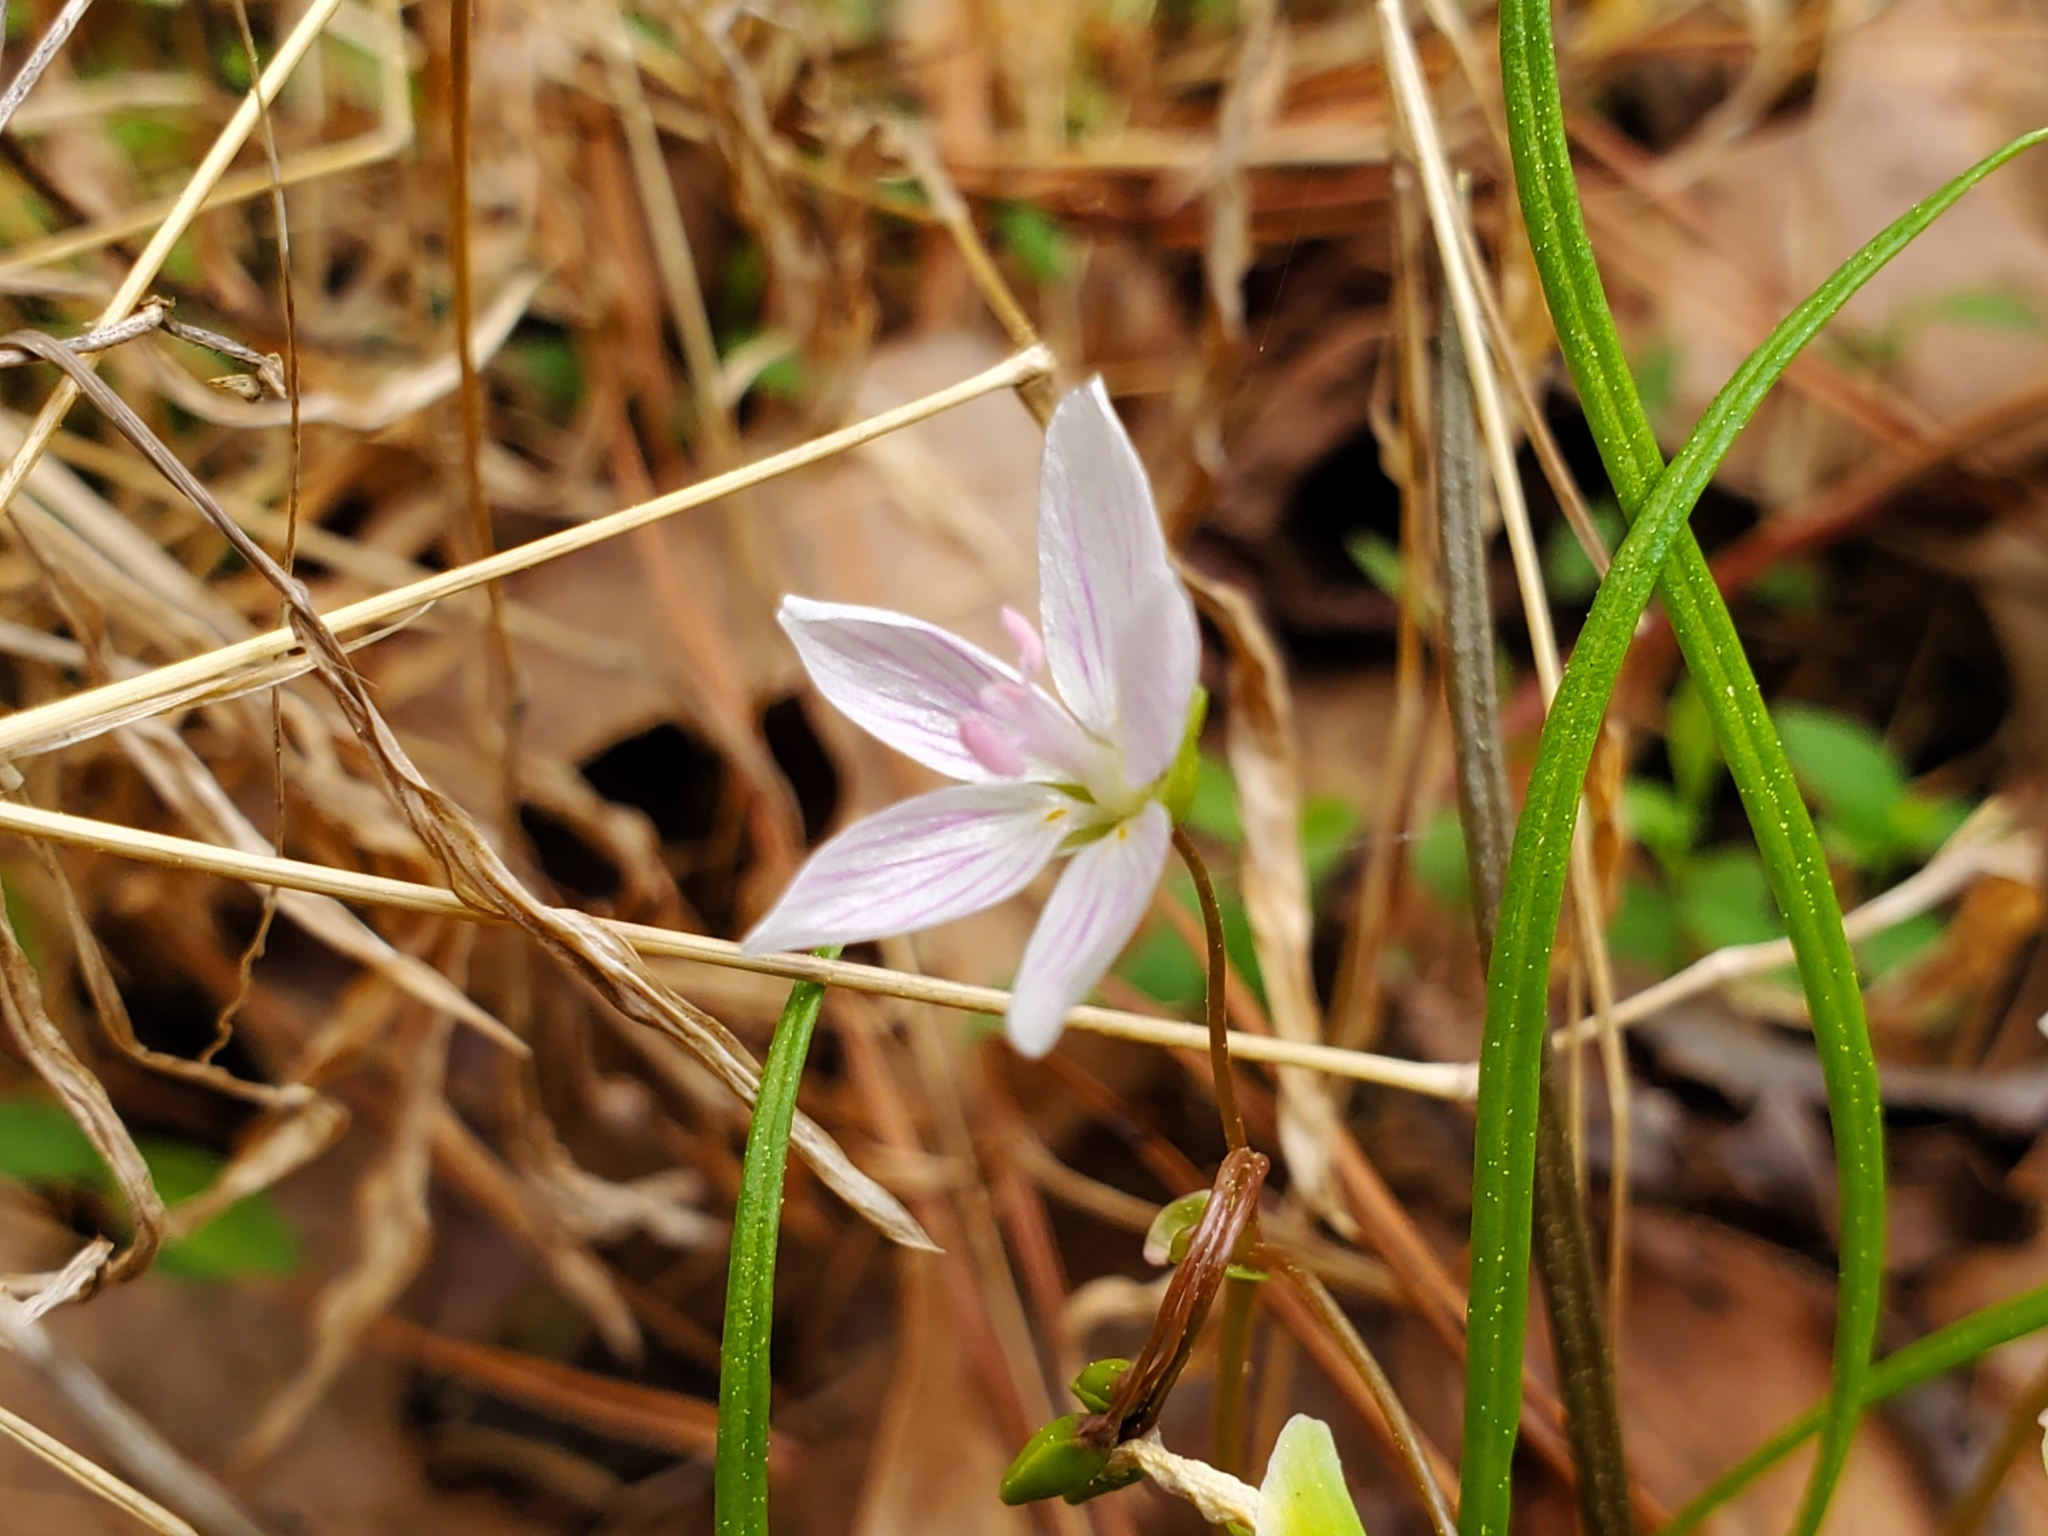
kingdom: Plantae
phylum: Tracheophyta
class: Magnoliopsida
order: Caryophyllales
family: Montiaceae
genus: Claytonia
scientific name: Claytonia virginica
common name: Virginia springbeauty
